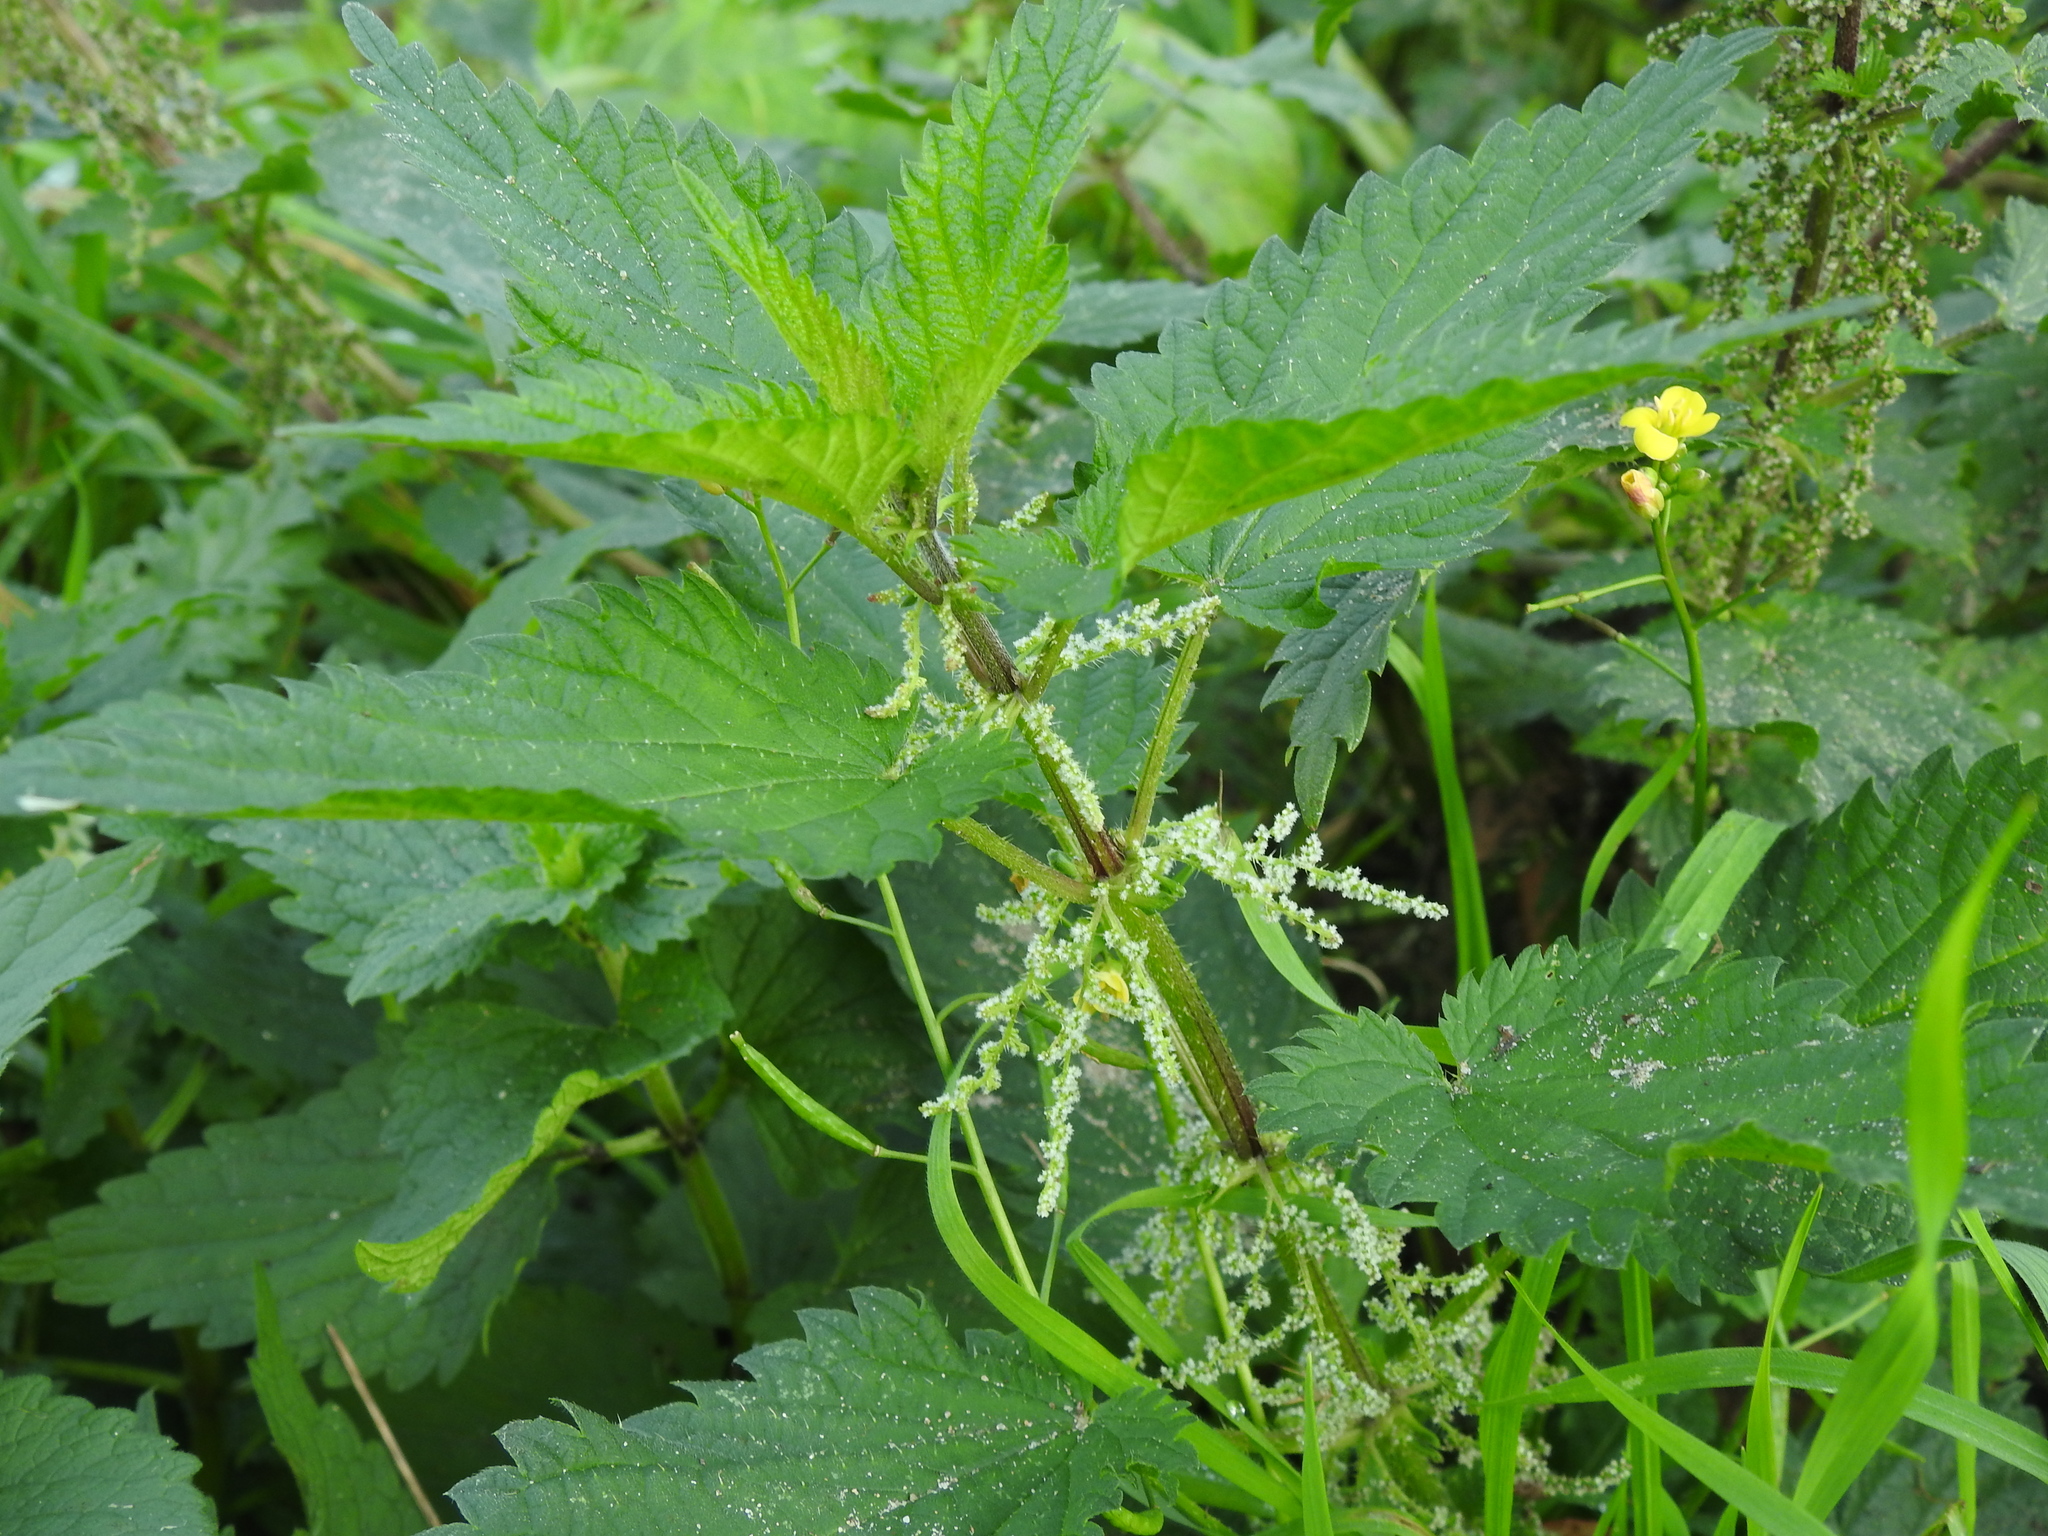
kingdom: Plantae
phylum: Tracheophyta
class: Magnoliopsida
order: Rosales
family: Urticaceae
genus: Urtica
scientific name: Urtica dioica
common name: Common nettle
